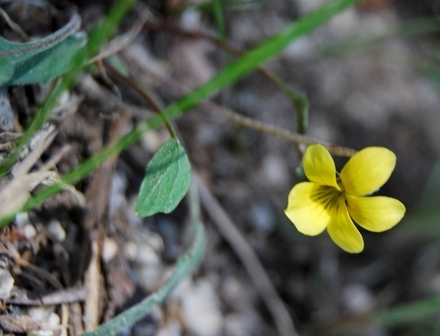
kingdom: Plantae
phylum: Tracheophyta
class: Magnoliopsida
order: Malpighiales
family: Violaceae
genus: Viola
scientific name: Viola purpurea
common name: Pine violet
